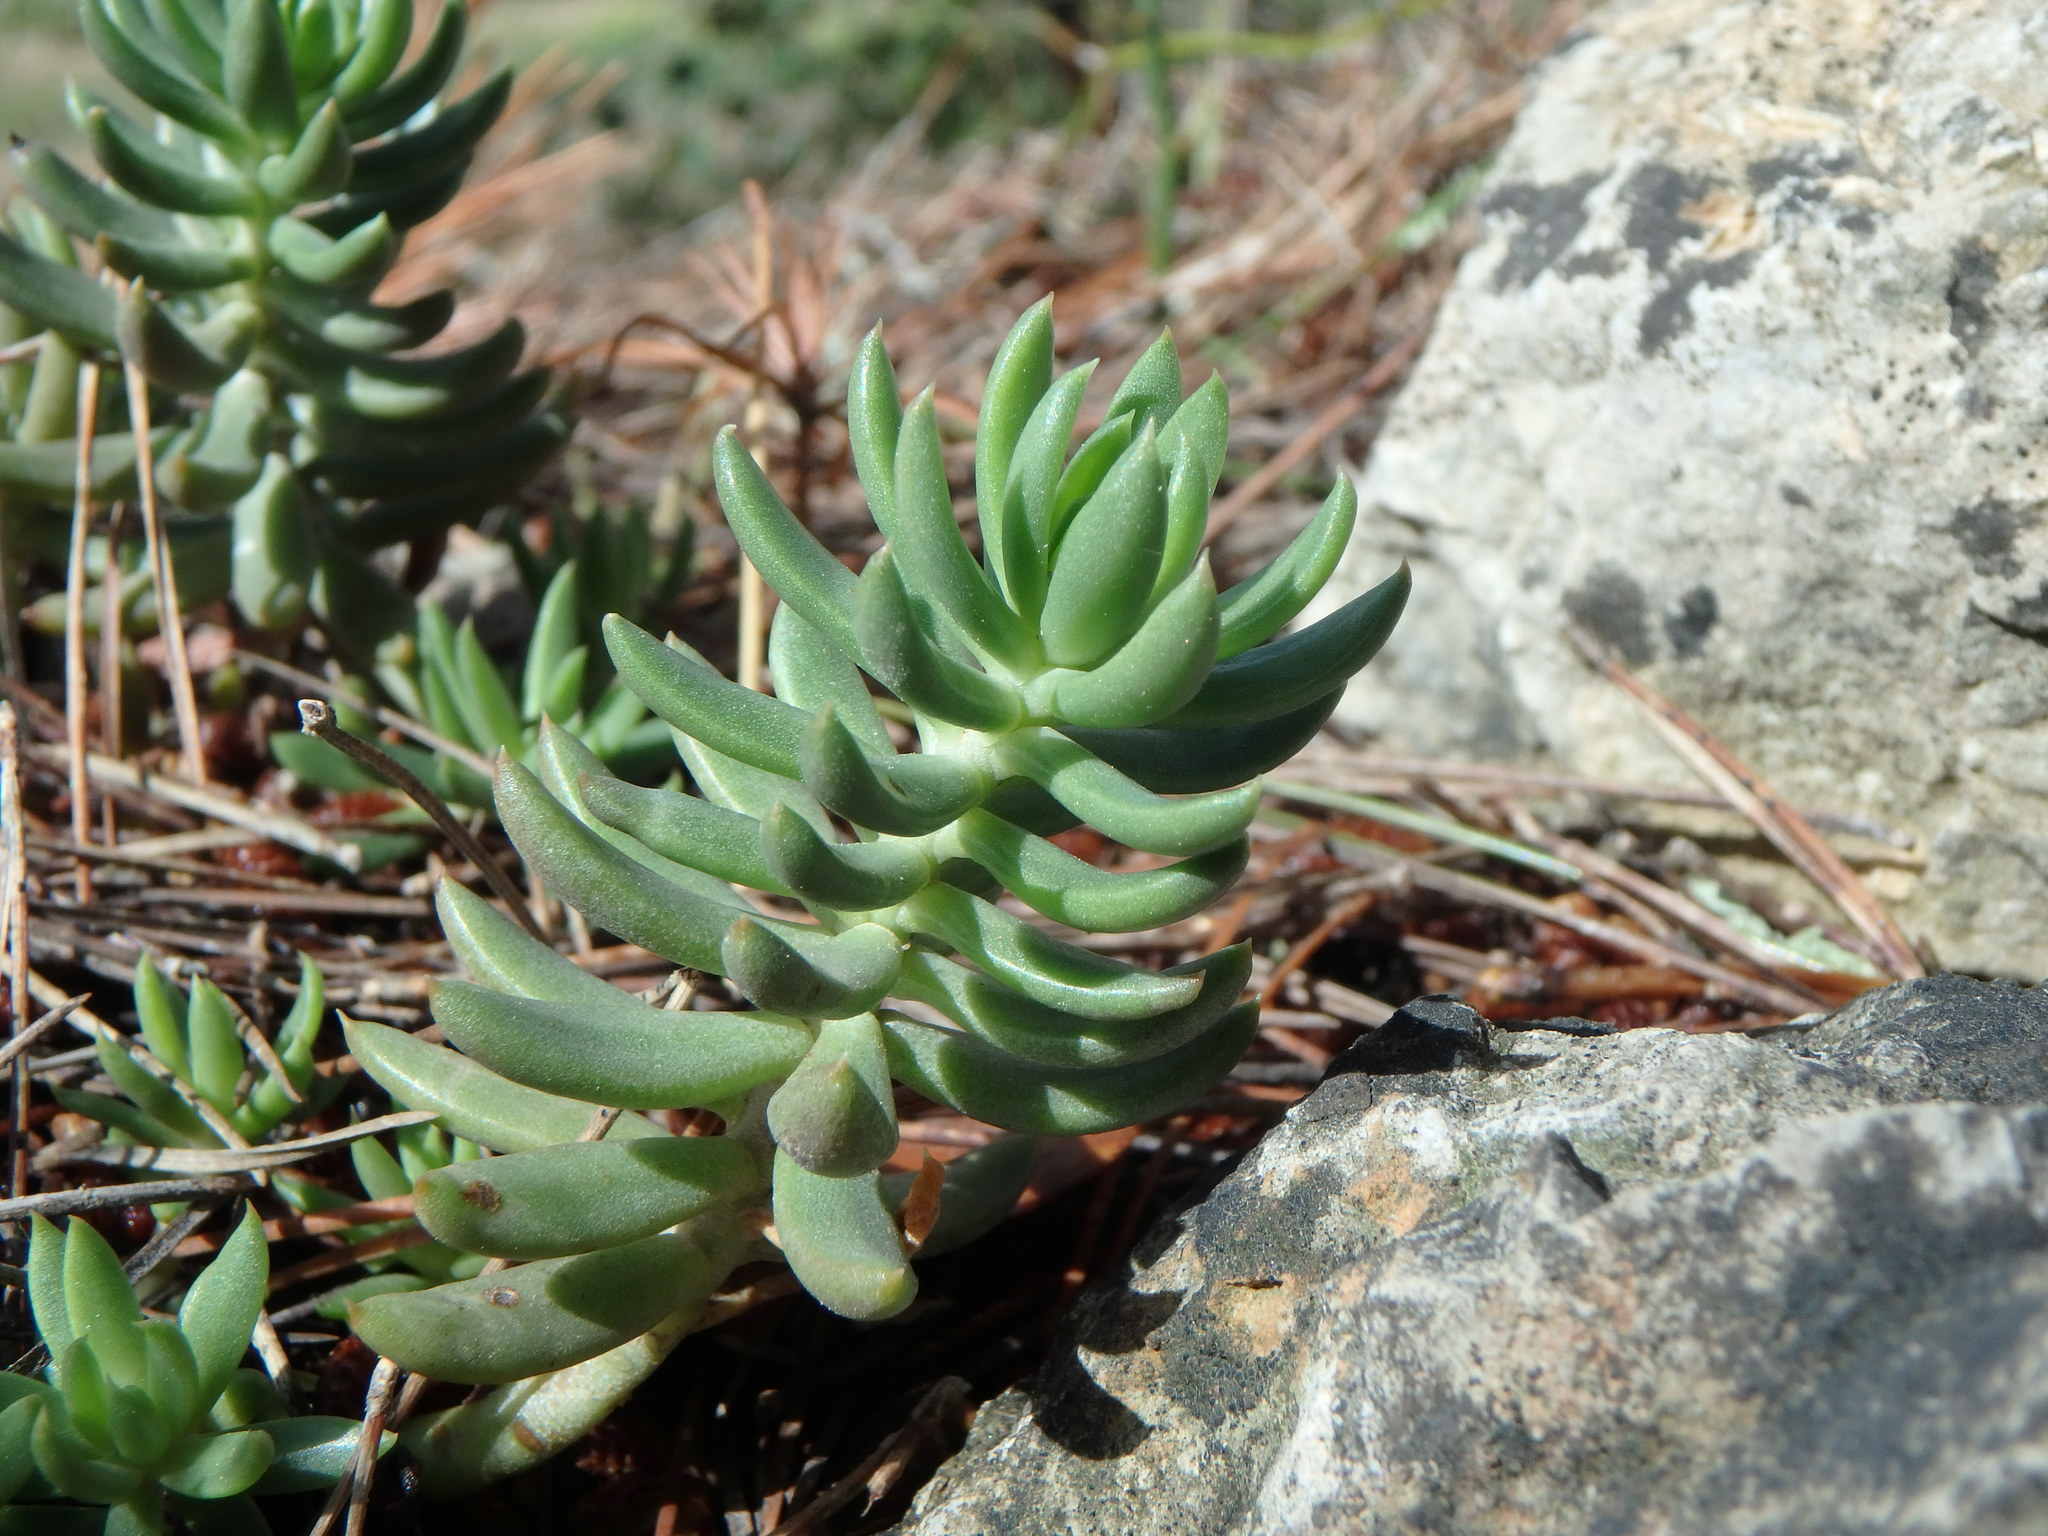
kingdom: Plantae
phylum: Tracheophyta
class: Magnoliopsida
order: Saxifragales
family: Crassulaceae
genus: Petrosedum
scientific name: Petrosedum sediforme
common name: Pale stonecrop
